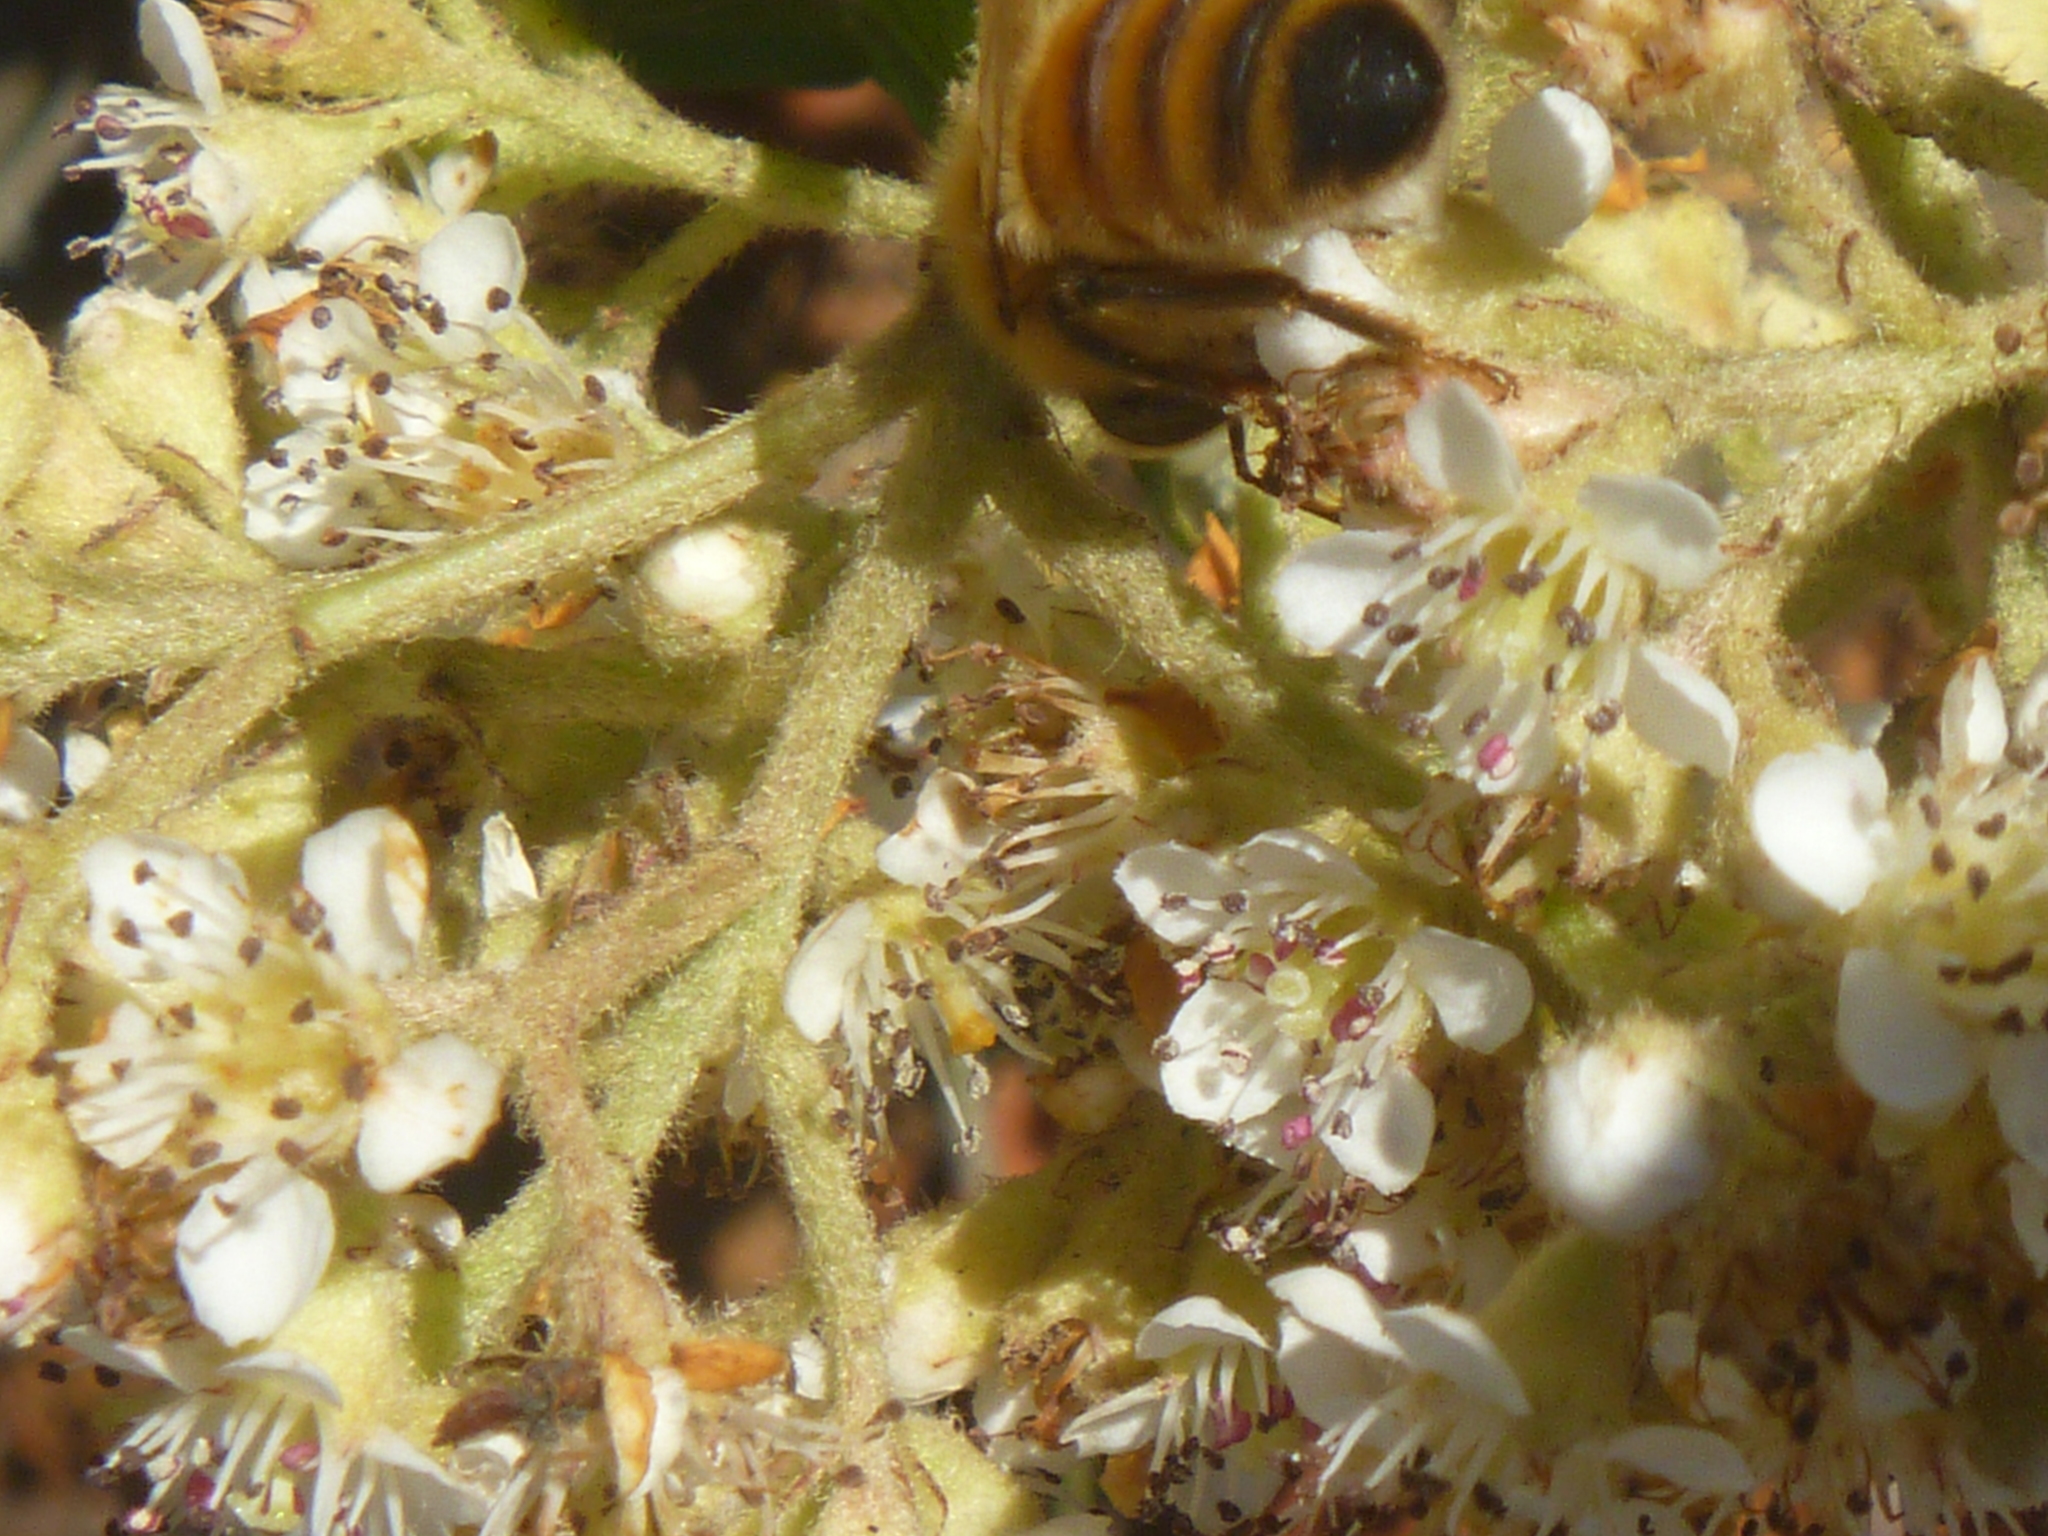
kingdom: Animalia
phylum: Arthropoda
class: Insecta
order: Hymenoptera
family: Apidae
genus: Apis
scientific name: Apis mellifera
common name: Honey bee
